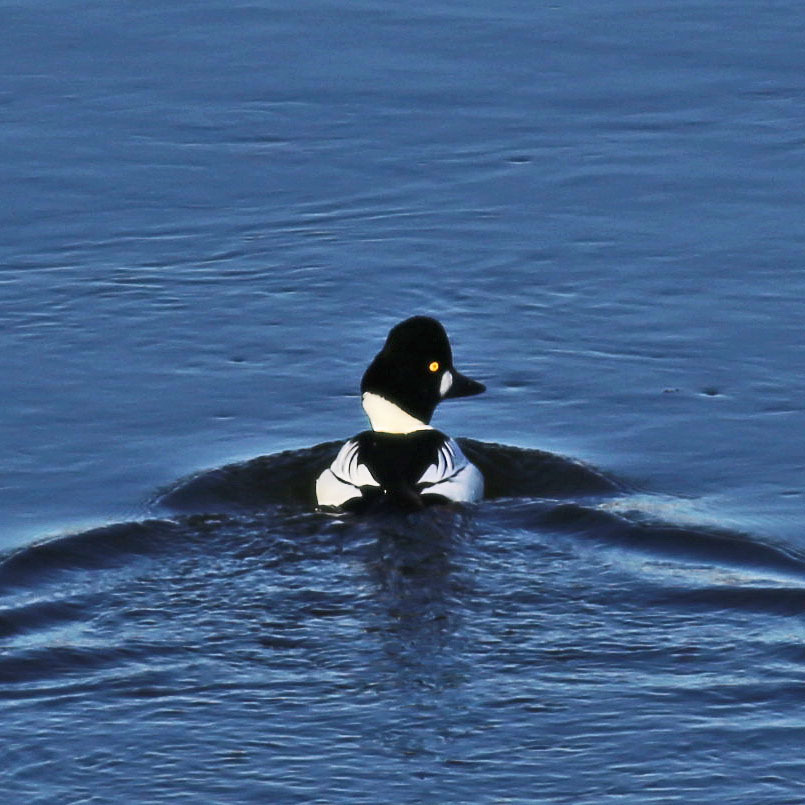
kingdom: Animalia
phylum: Chordata
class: Aves
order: Anseriformes
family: Anatidae
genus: Bucephala
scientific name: Bucephala clangula
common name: Common goldeneye
